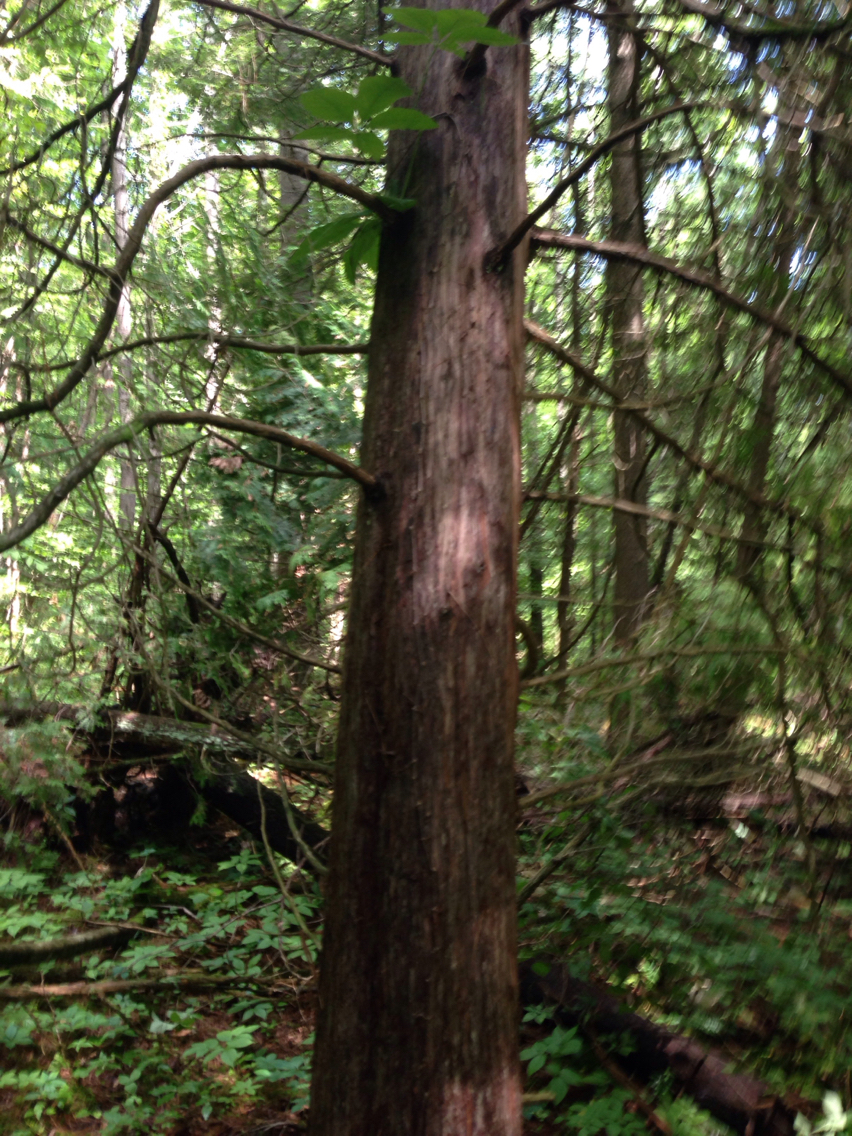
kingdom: Plantae
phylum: Tracheophyta
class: Pinopsida
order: Pinales
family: Cupressaceae
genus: Thuja
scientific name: Thuja occidentalis
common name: Northern white-cedar
